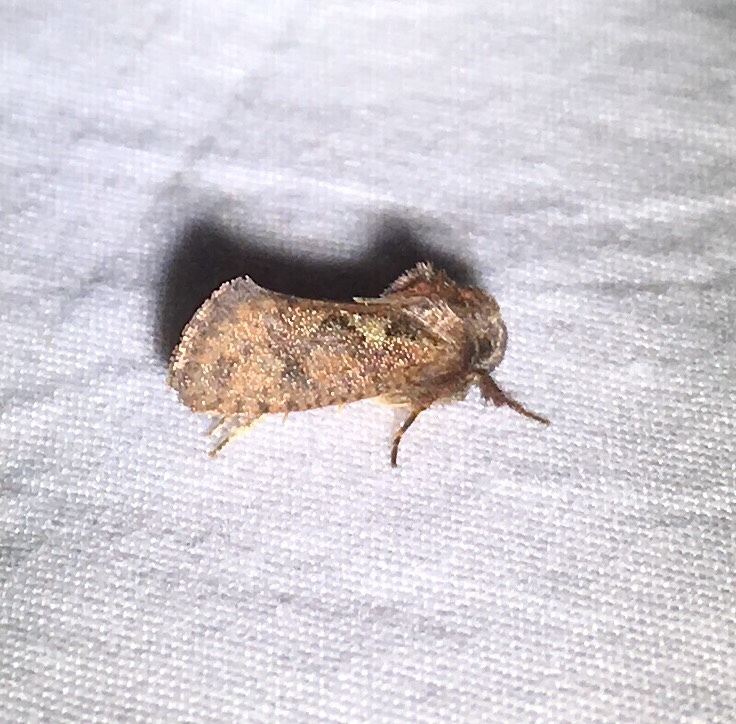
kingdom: Animalia
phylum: Arthropoda
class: Insecta
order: Lepidoptera
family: Tineidae
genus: Acrolophus
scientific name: Acrolophus walsinghami
